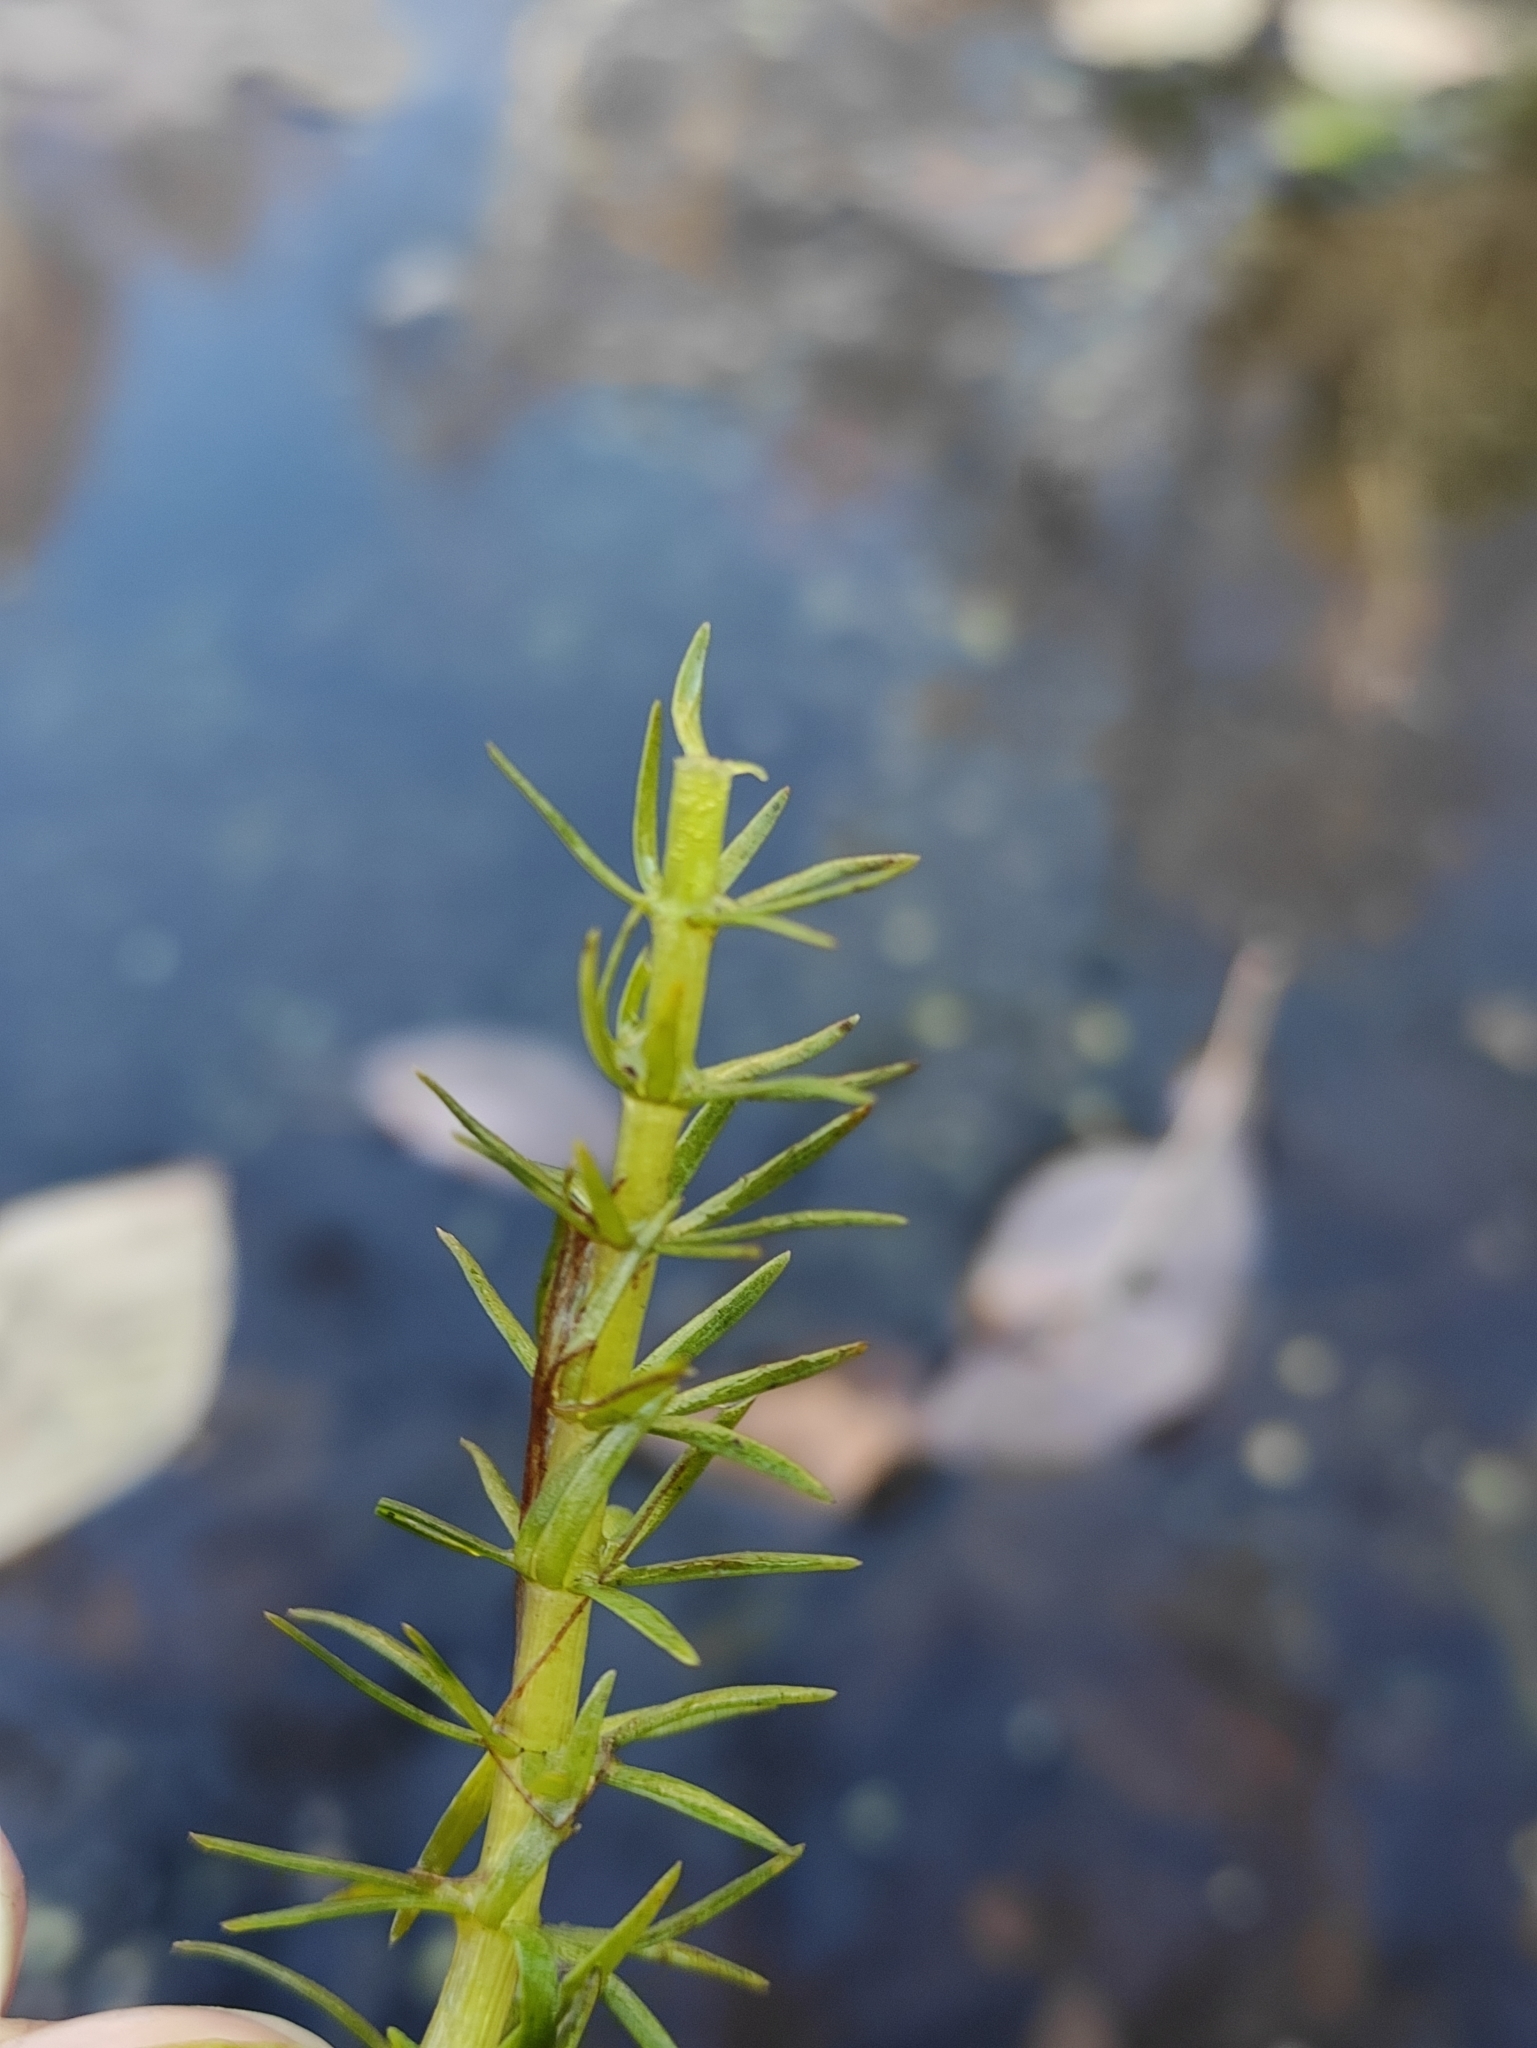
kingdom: Plantae
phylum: Tracheophyta
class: Magnoliopsida
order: Lamiales
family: Plantaginaceae
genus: Hippuris
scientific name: Hippuris vulgaris
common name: Mare's-tail
